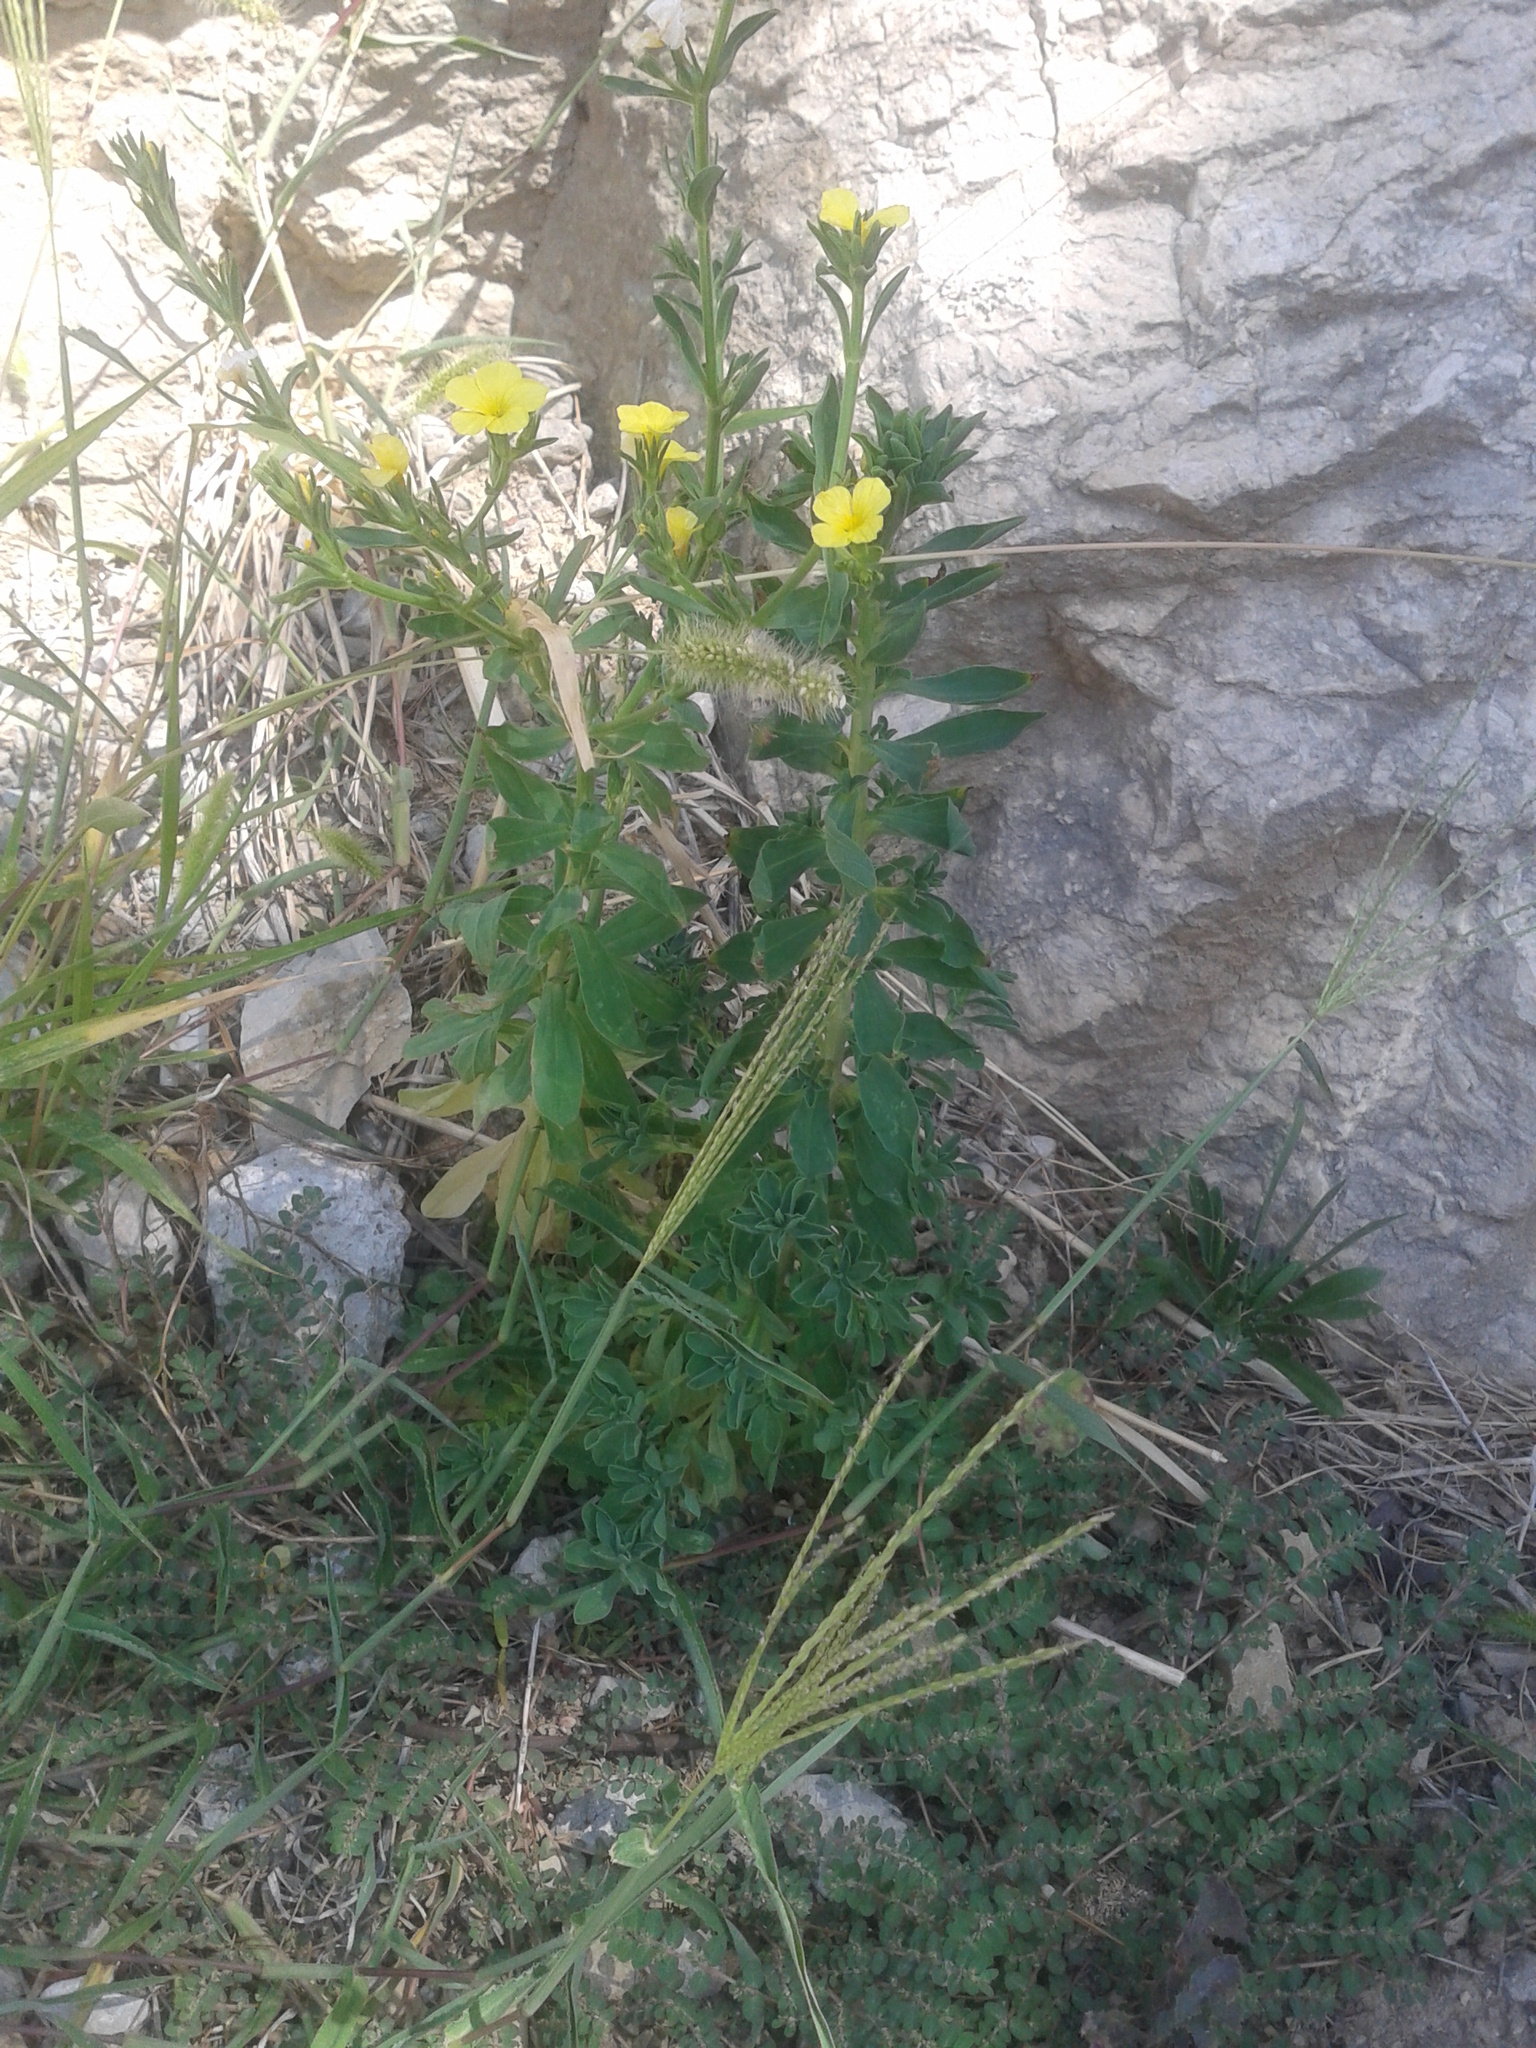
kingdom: Plantae
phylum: Tracheophyta
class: Magnoliopsida
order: Malpighiales
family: Linaceae
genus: Linum
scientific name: Linum nodiflorum
